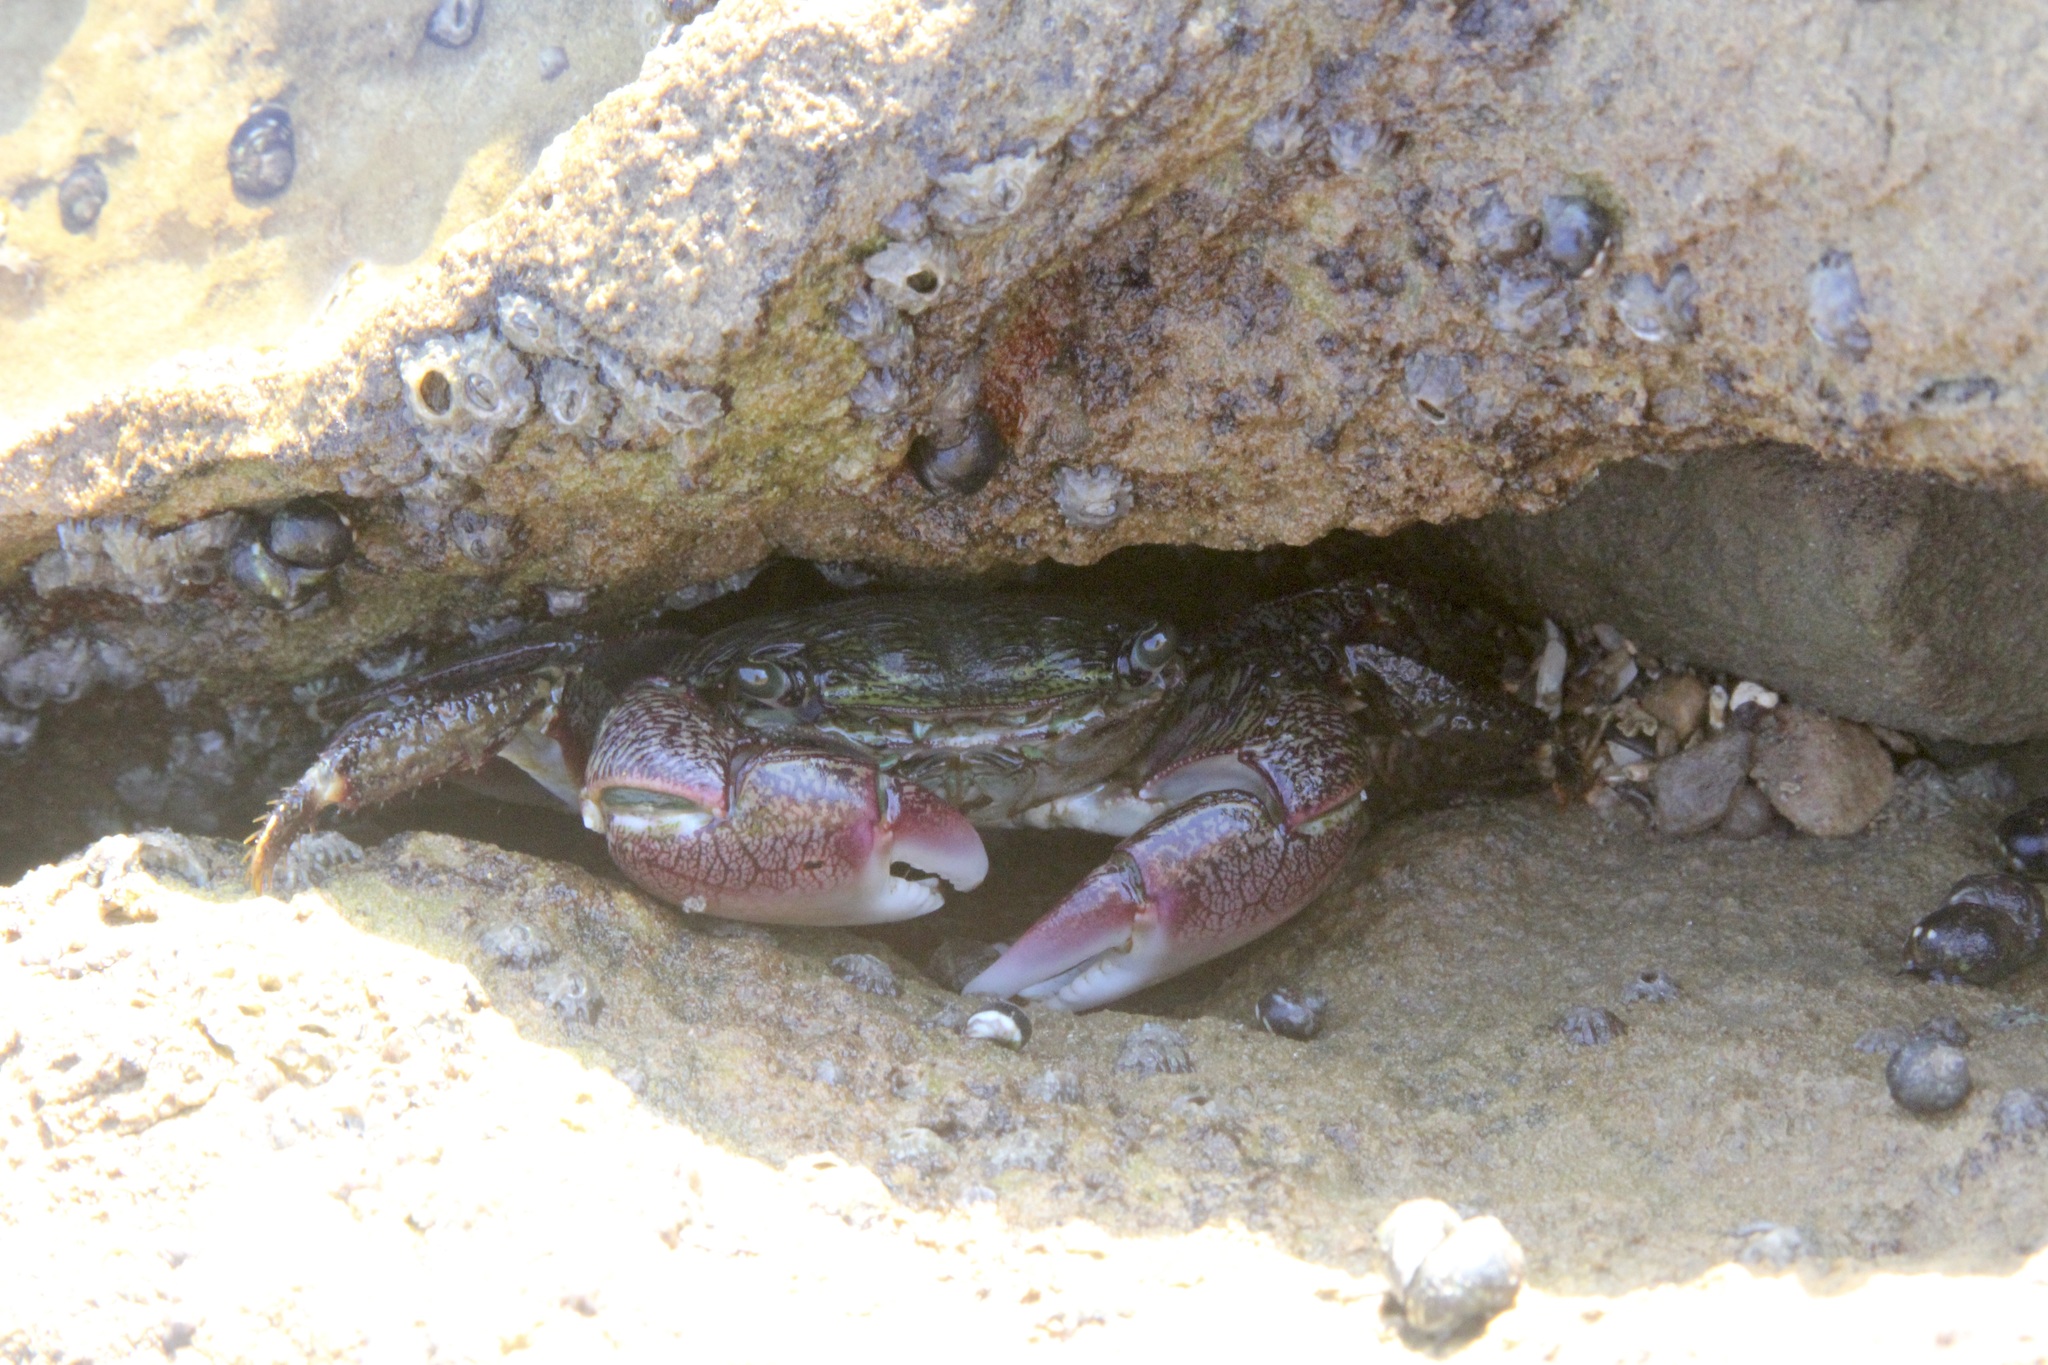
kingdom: Animalia
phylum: Arthropoda
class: Malacostraca
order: Decapoda
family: Grapsidae
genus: Pachygrapsus
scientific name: Pachygrapsus crassipes
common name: Striped shore crab
